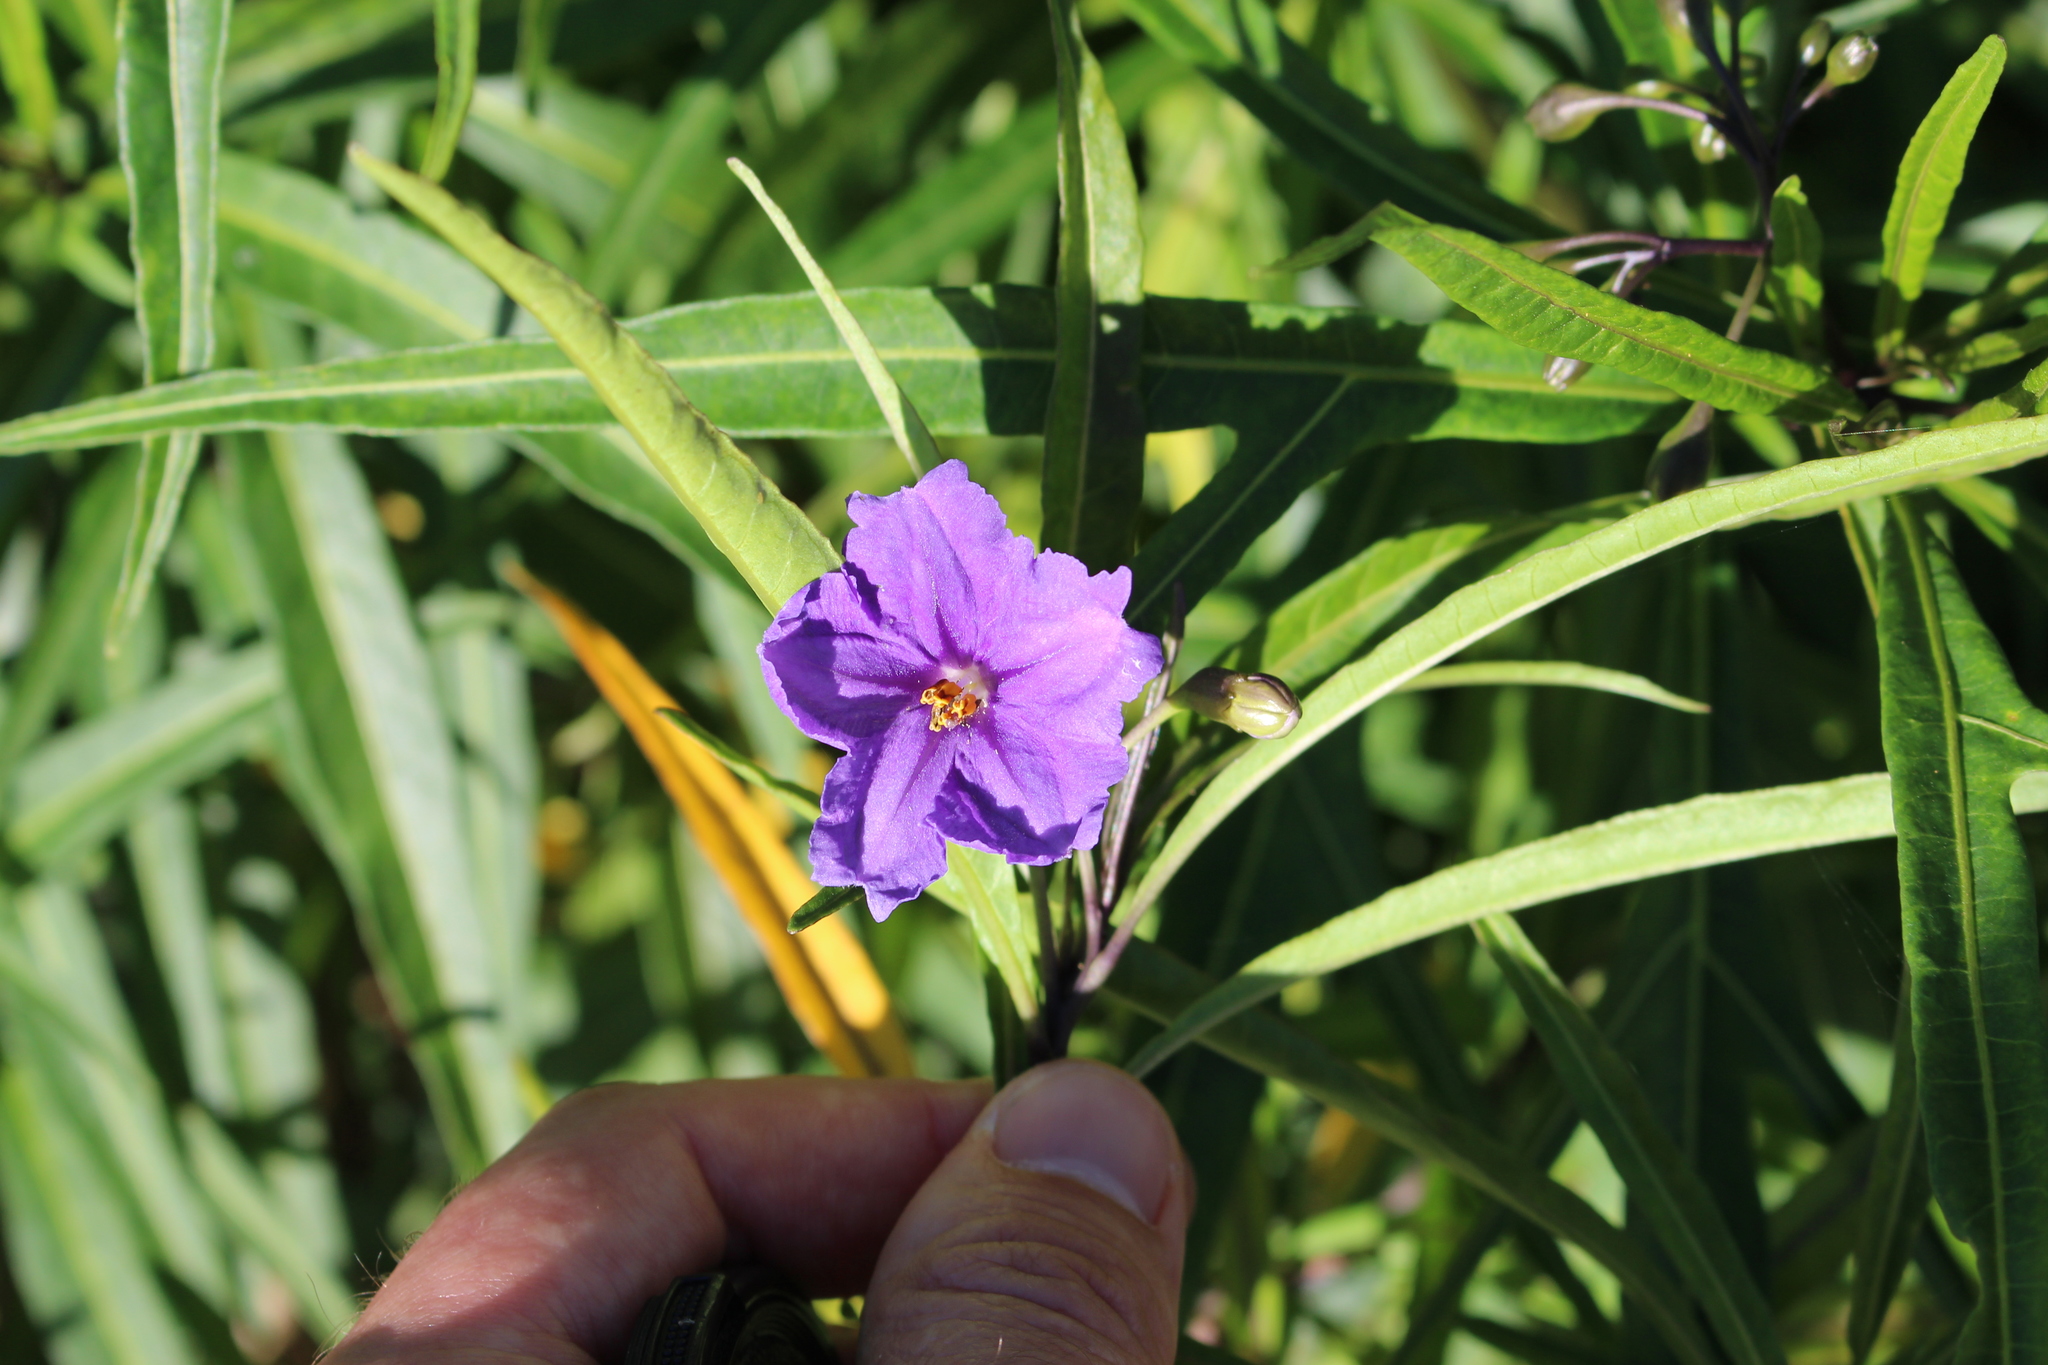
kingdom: Plantae
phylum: Tracheophyta
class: Magnoliopsida
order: Solanales
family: Solanaceae
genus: Solanum
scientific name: Solanum laciniatum
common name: Kangaroo-apple
